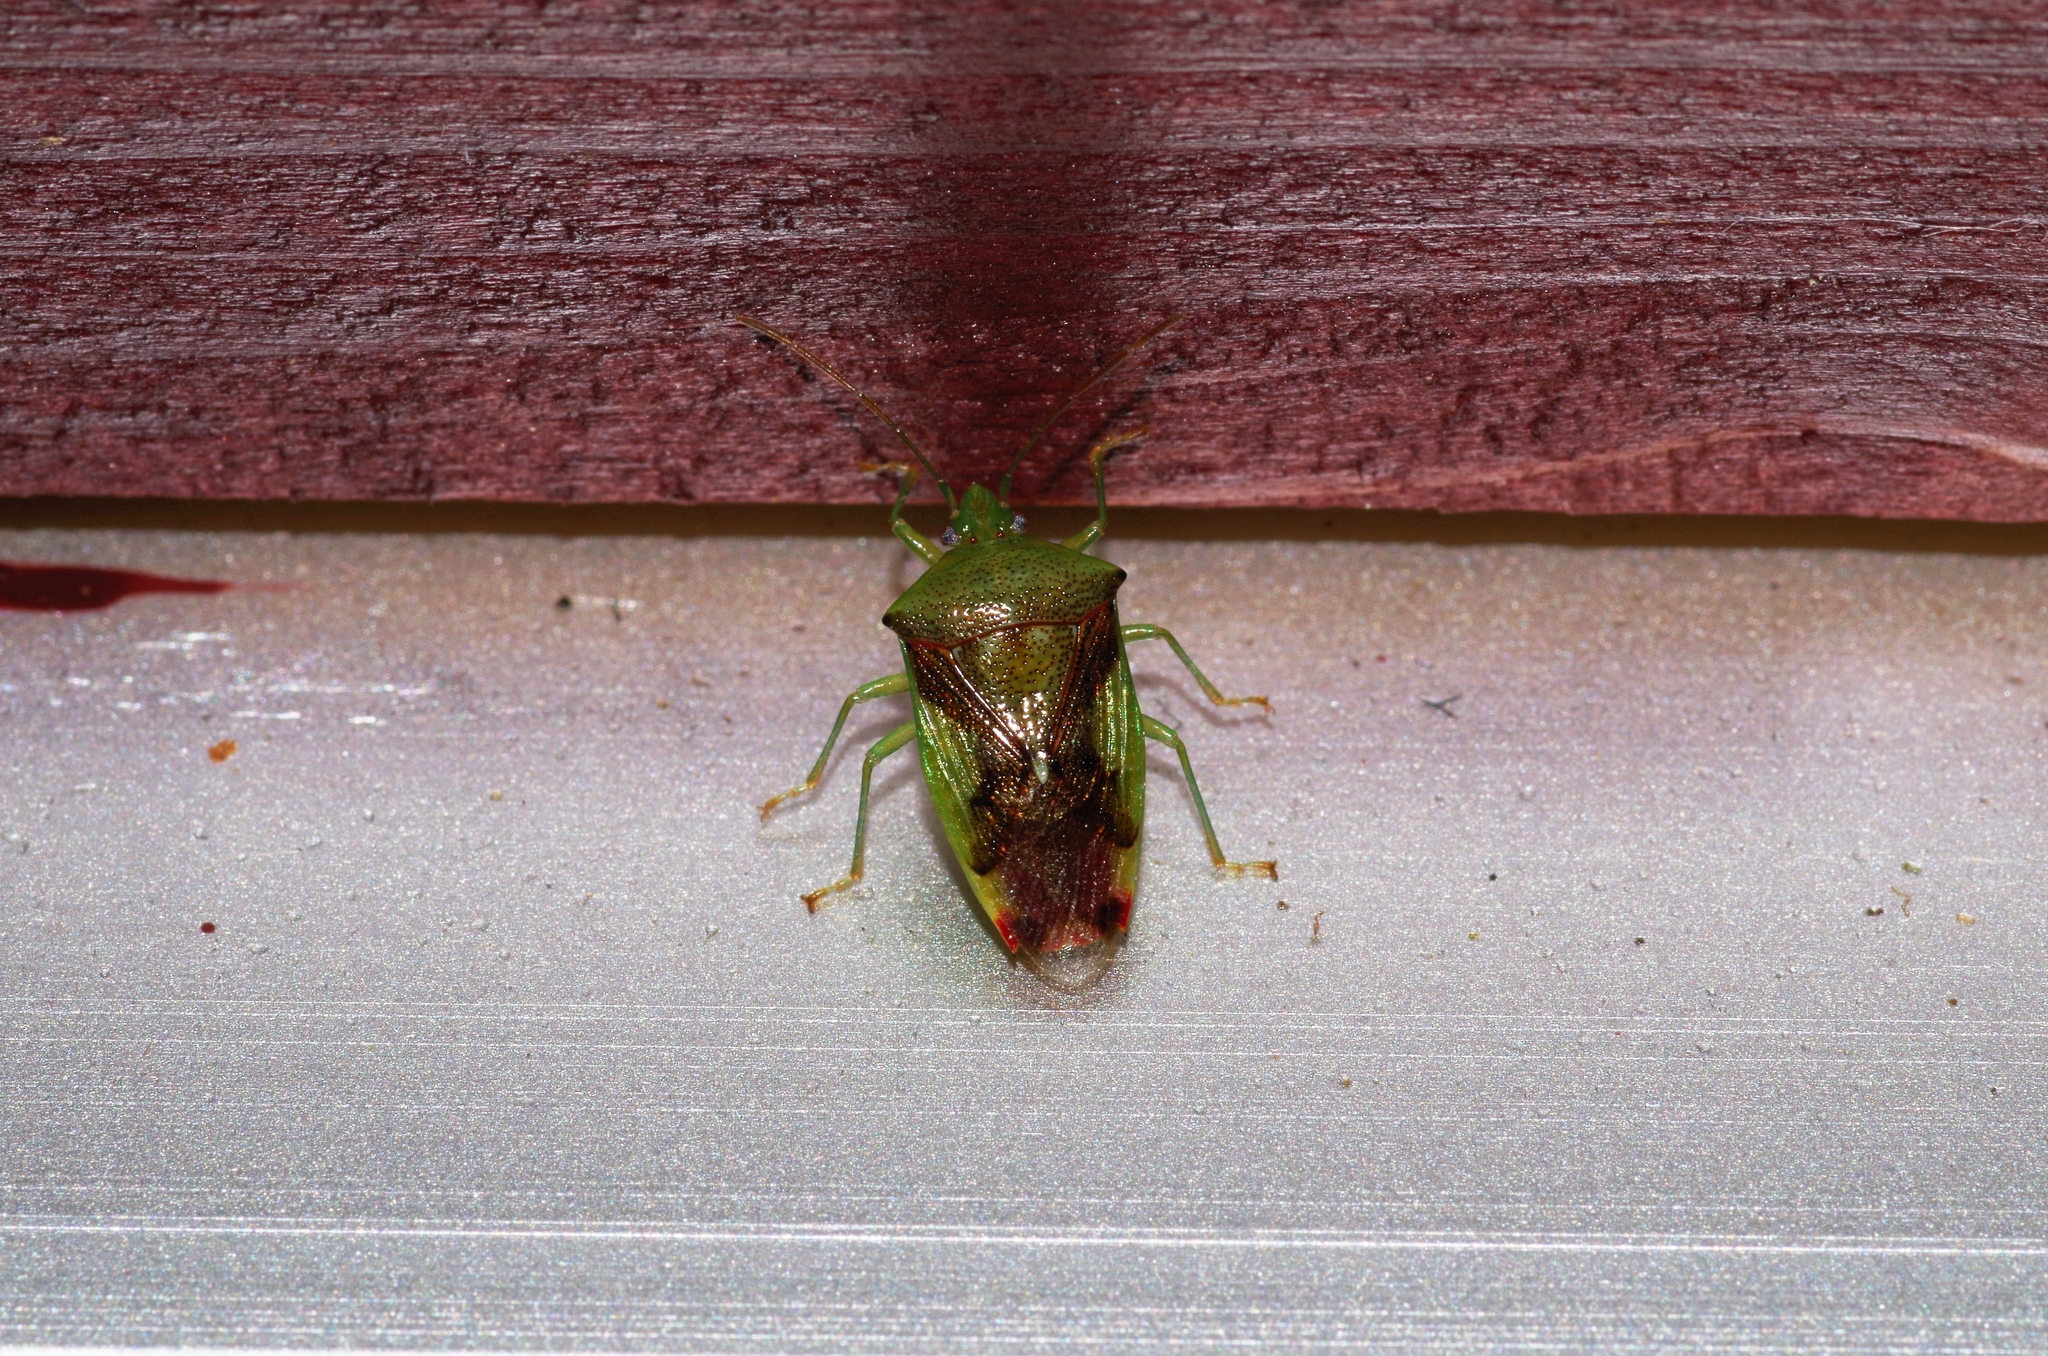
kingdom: Animalia
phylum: Arthropoda
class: Insecta
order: Hemiptera
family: Acanthosomatidae
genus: Elasmostethus
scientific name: Elasmostethus nubilus
